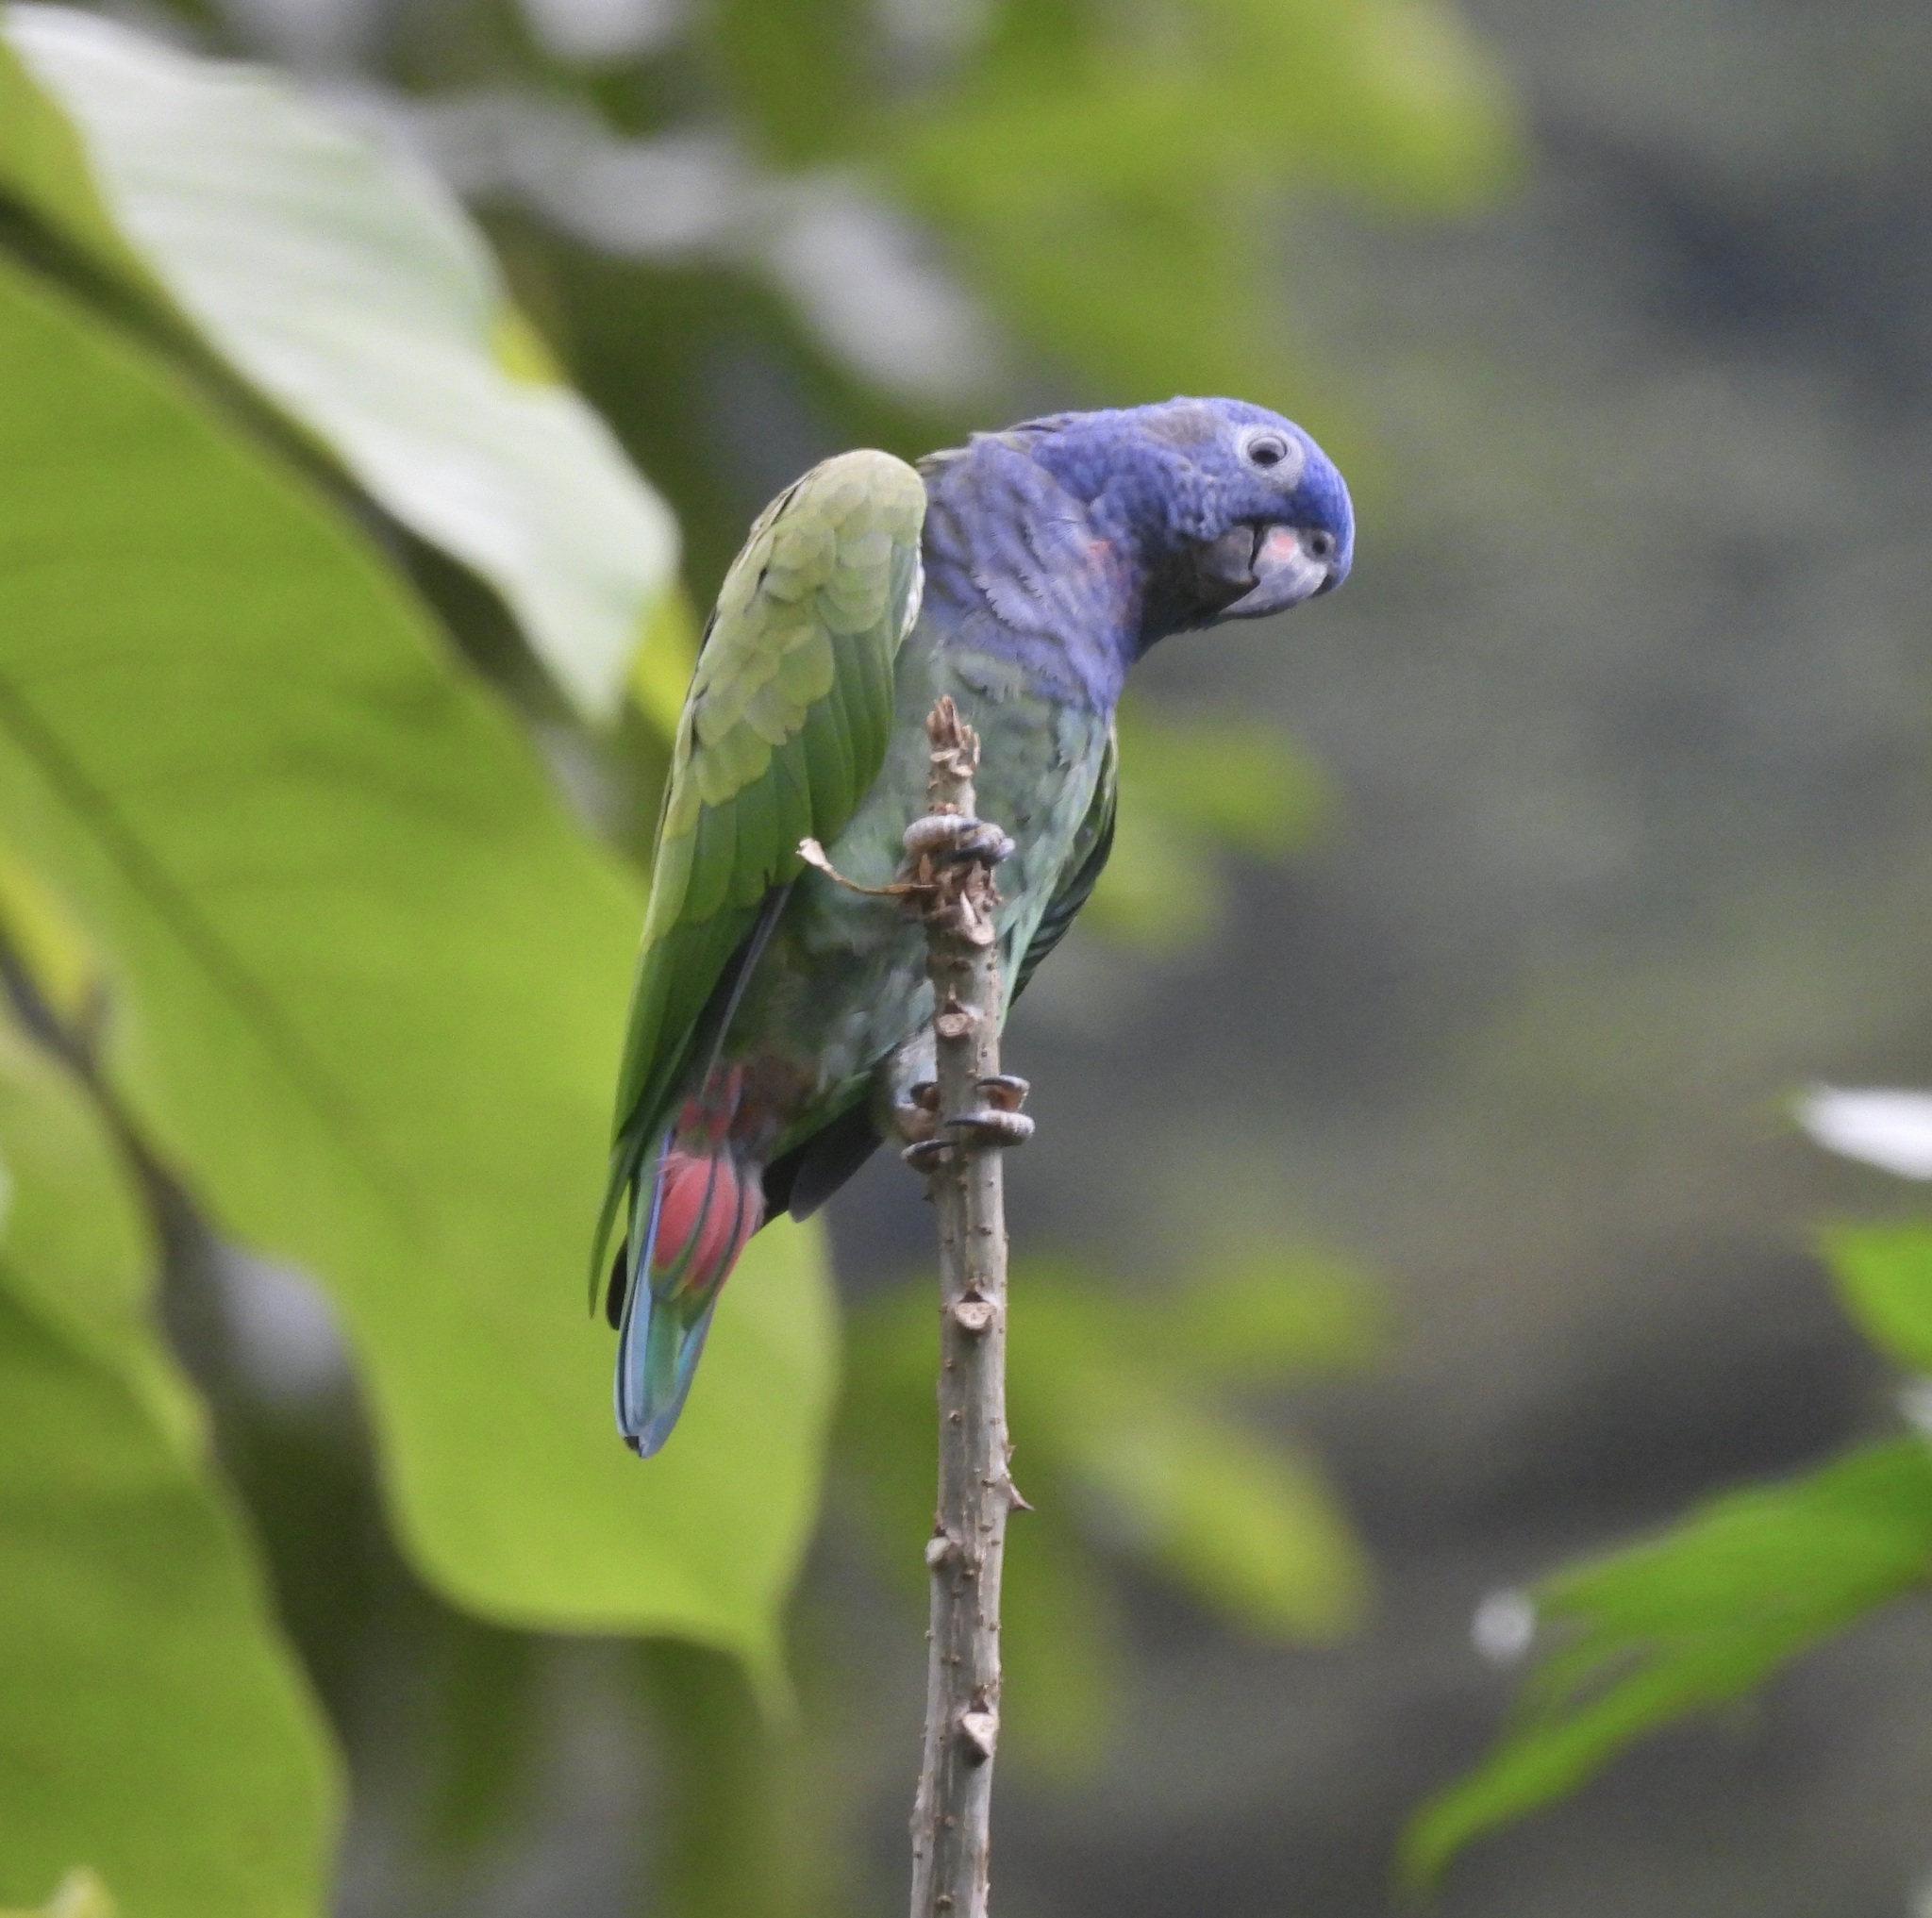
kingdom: Animalia
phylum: Chordata
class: Aves
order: Psittaciformes
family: Psittacidae
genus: Pionus
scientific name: Pionus menstruus
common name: Blue-headed parrot
